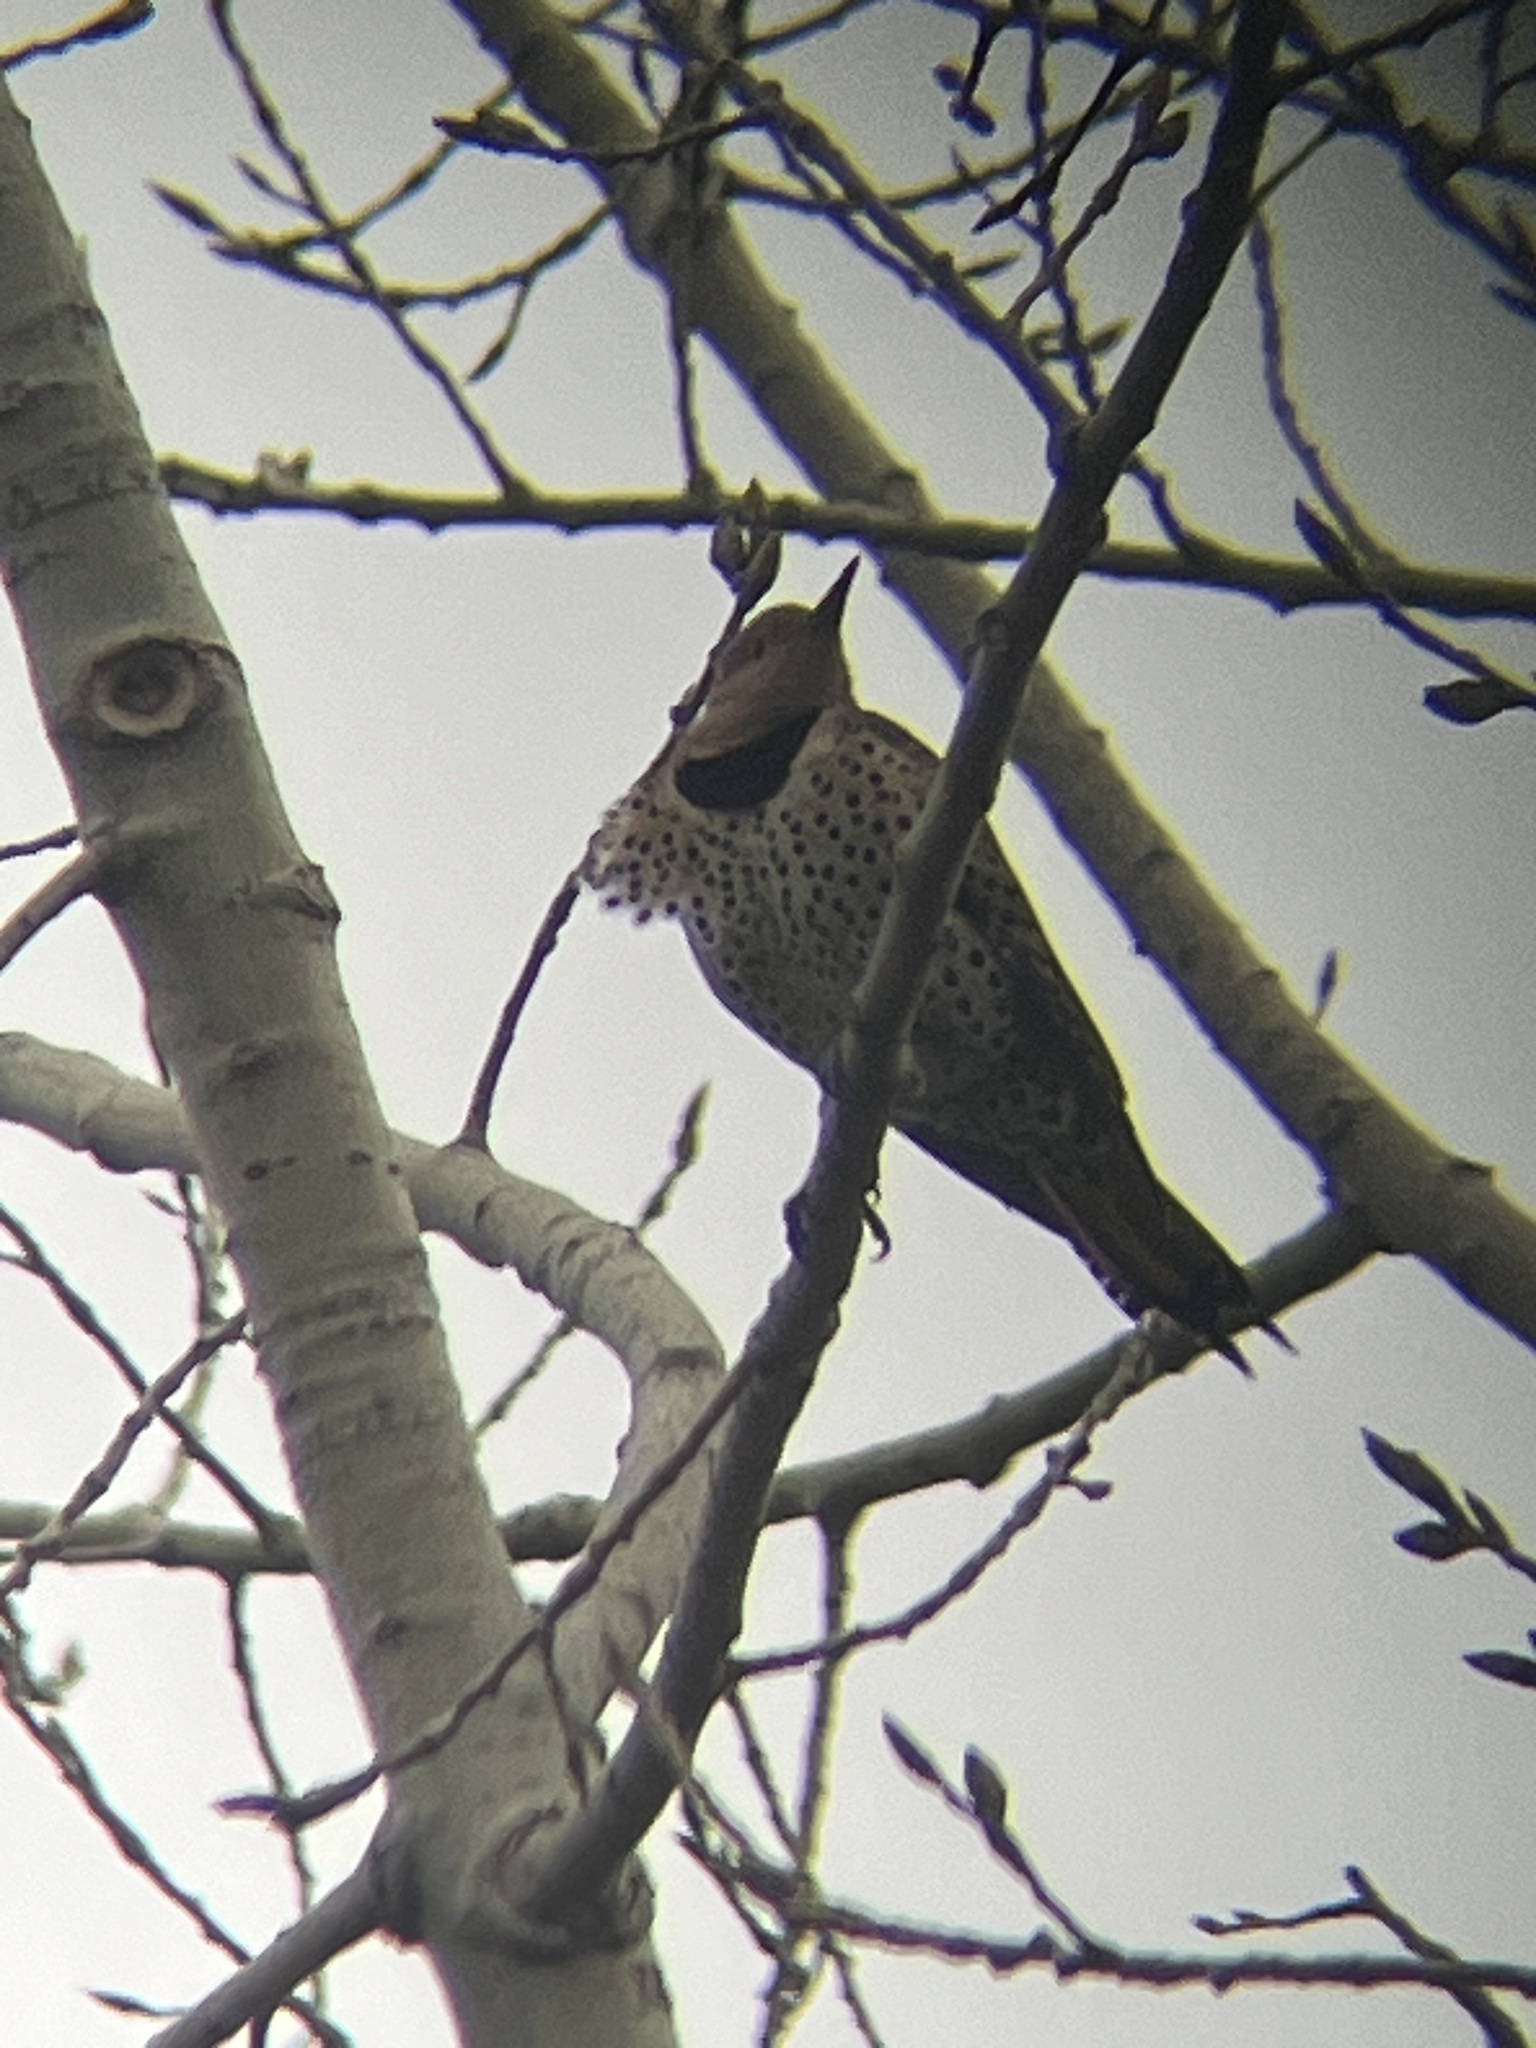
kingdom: Animalia
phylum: Chordata
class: Aves
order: Piciformes
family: Picidae
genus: Colaptes
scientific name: Colaptes auratus
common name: Northern flicker
